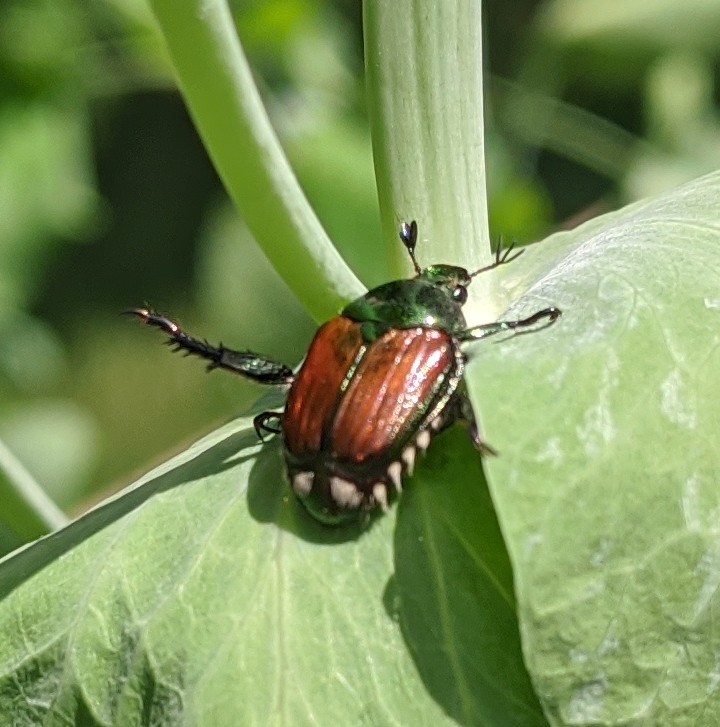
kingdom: Animalia
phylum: Arthropoda
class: Insecta
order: Coleoptera
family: Scarabaeidae
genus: Popillia
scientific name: Popillia japonica
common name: Japanese beetle
